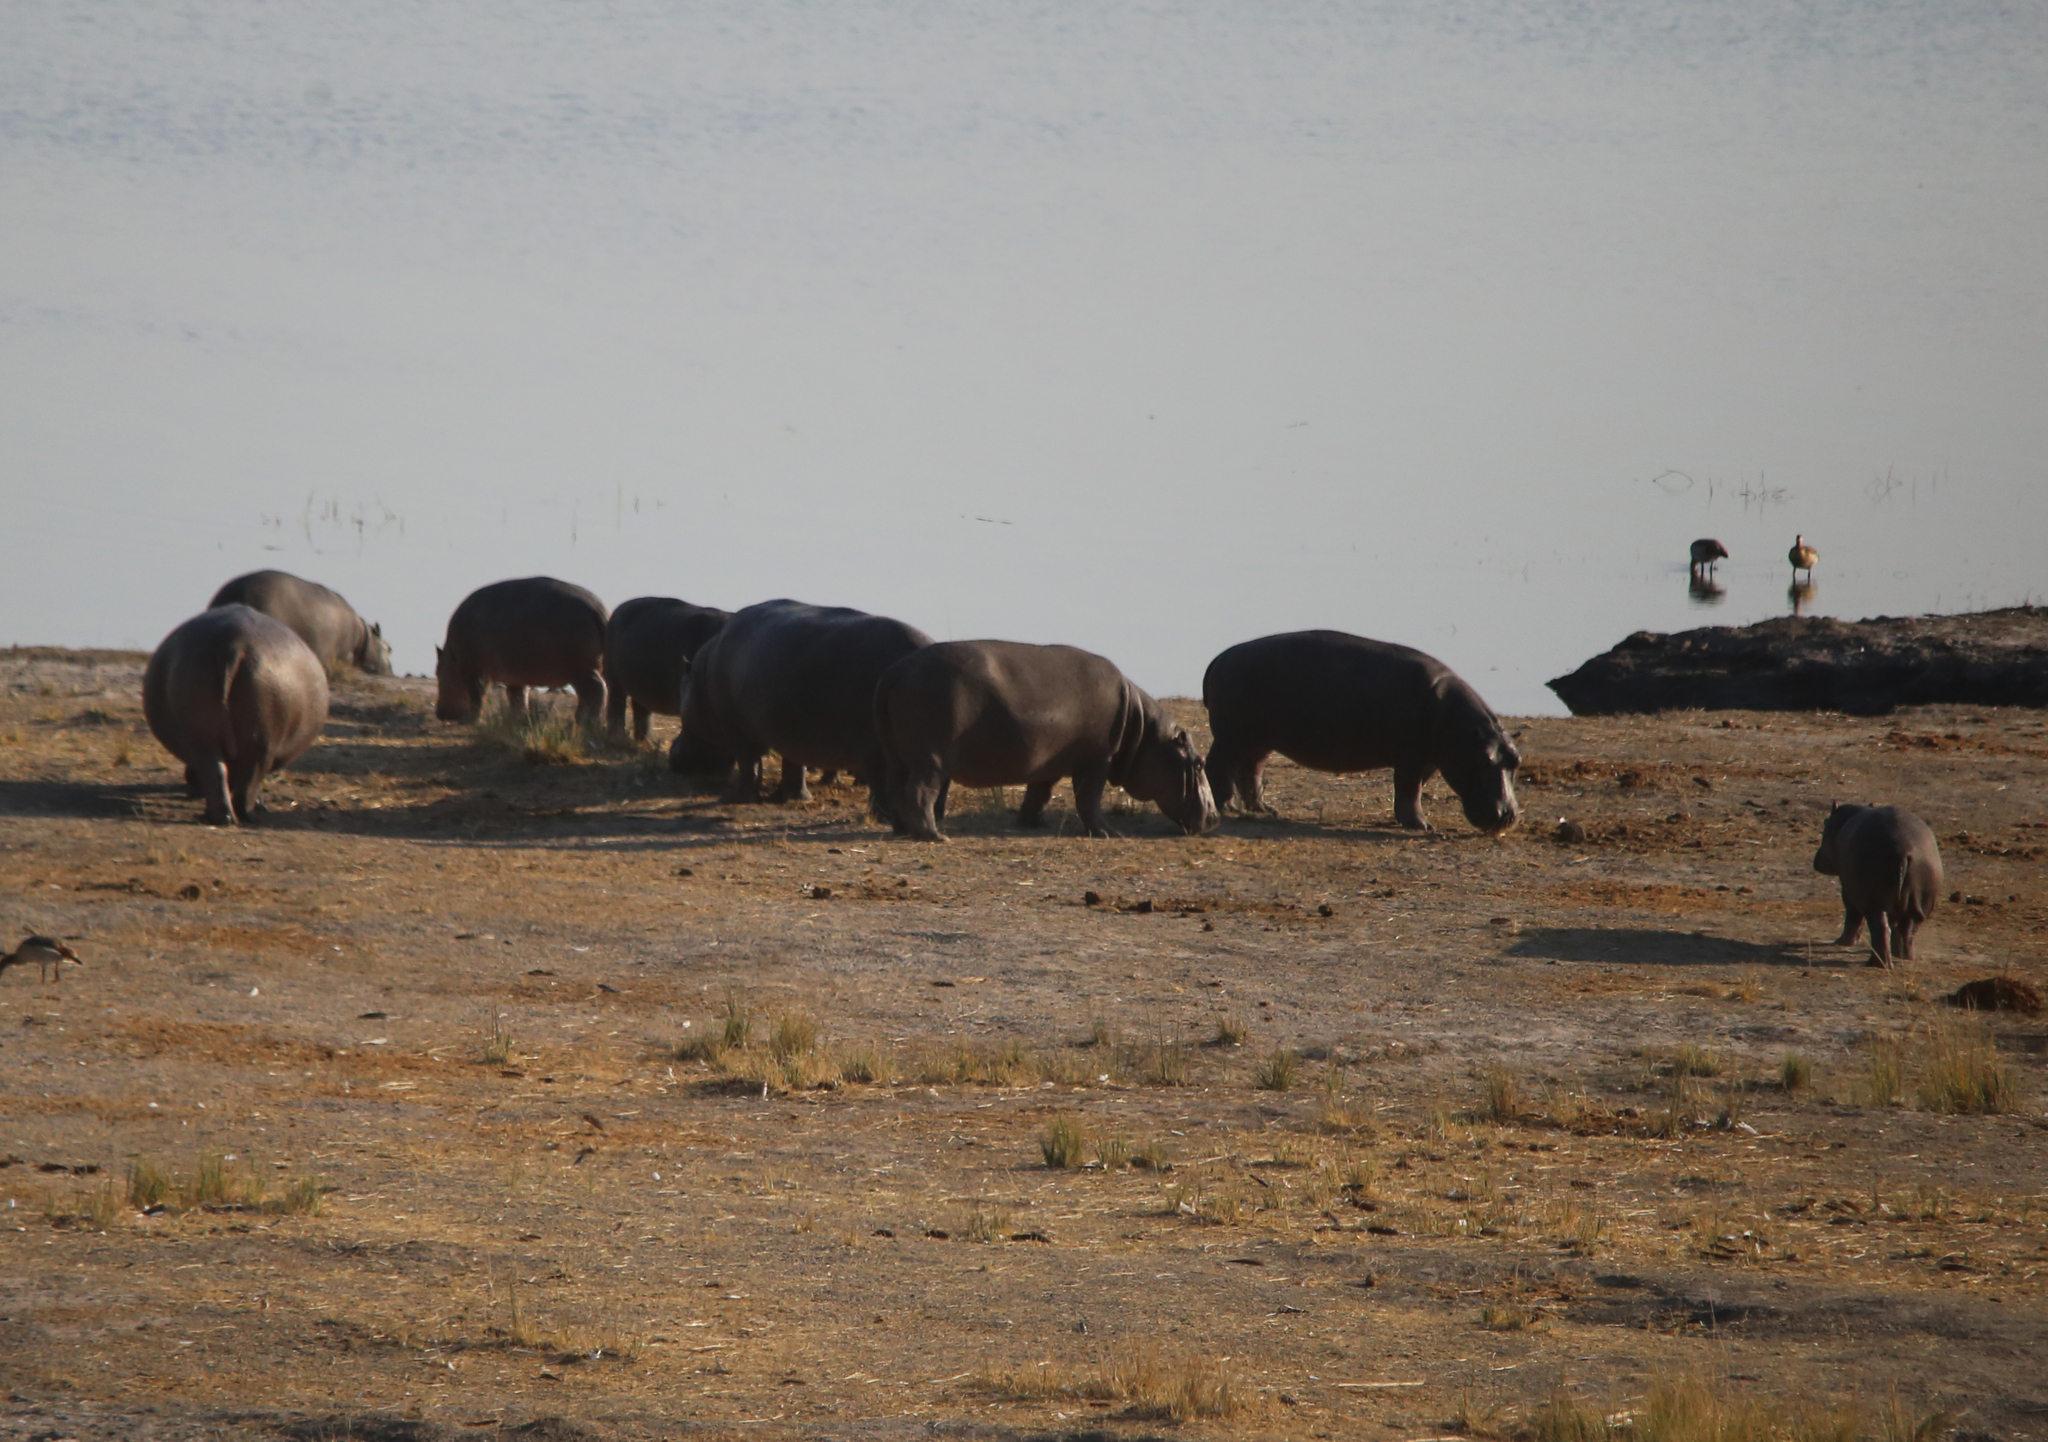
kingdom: Animalia
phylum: Chordata
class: Mammalia
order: Artiodactyla
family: Hippopotamidae
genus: Hippopotamus
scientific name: Hippopotamus amphibius
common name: Common hippopotamus
